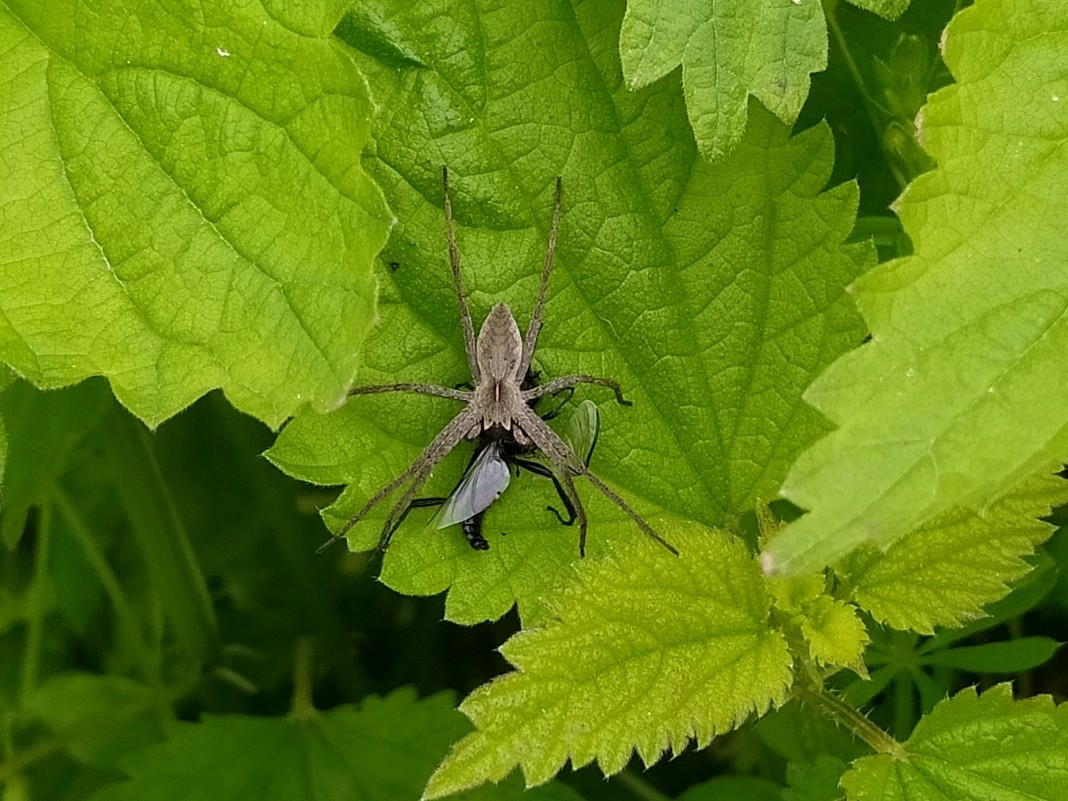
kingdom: Animalia
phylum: Arthropoda
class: Arachnida
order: Araneae
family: Pisauridae
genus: Pisaura
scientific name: Pisaura
